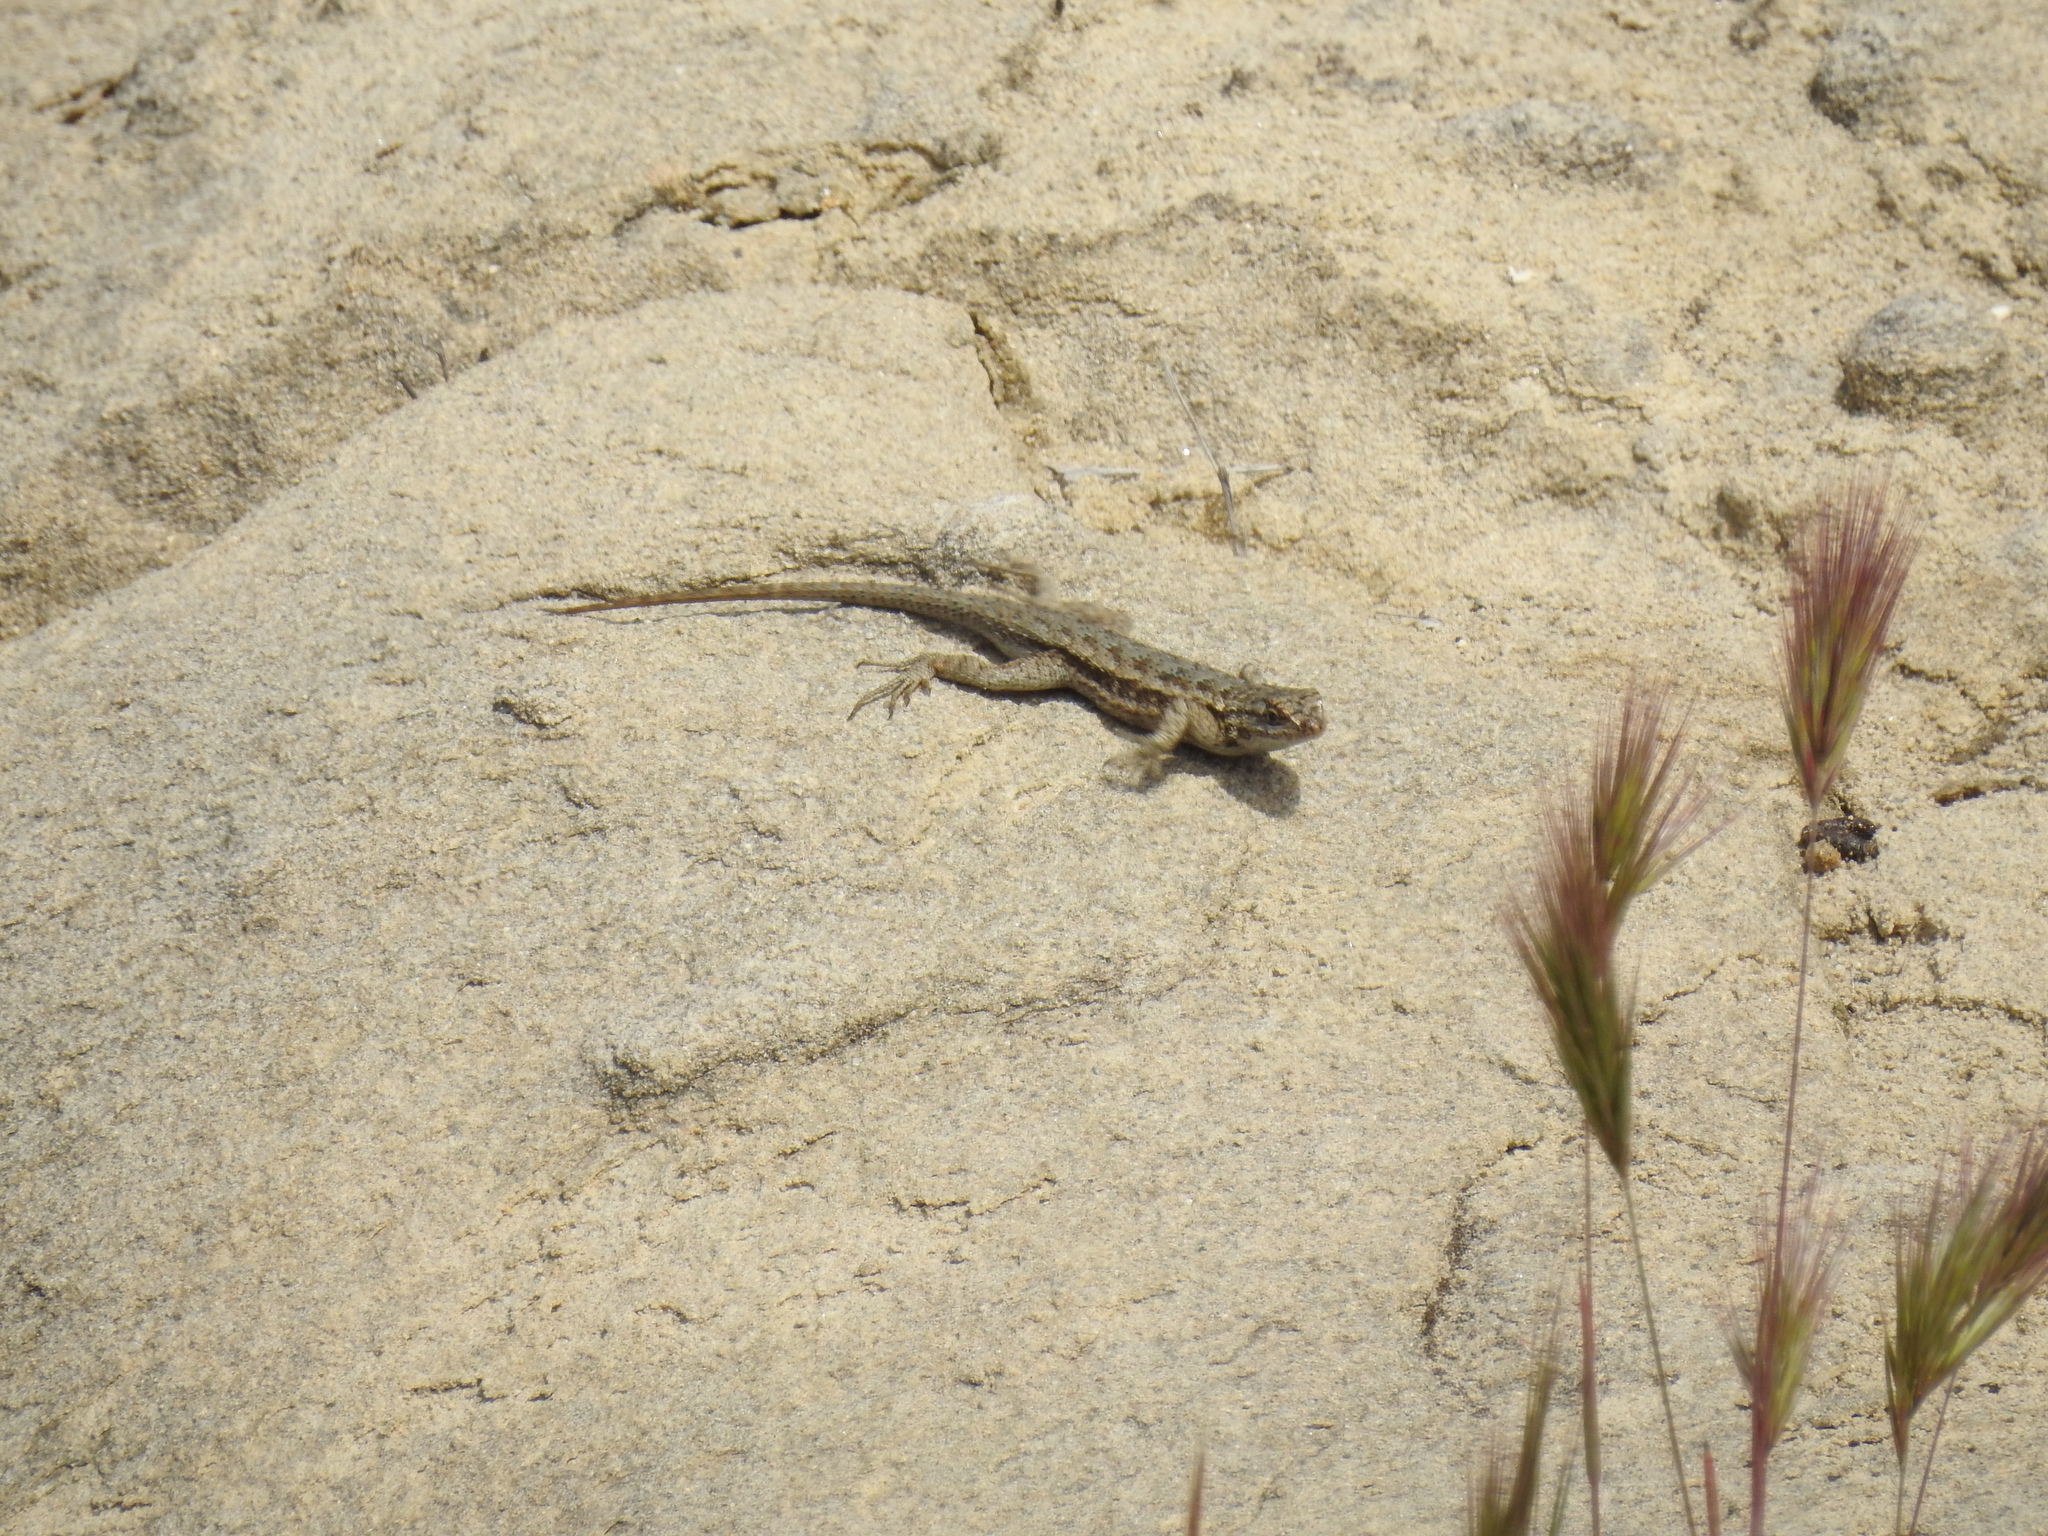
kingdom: Animalia
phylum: Chordata
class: Squamata
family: Phrynosomatidae
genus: Sceloporus
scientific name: Sceloporus occidentalis
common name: Western fence lizard
